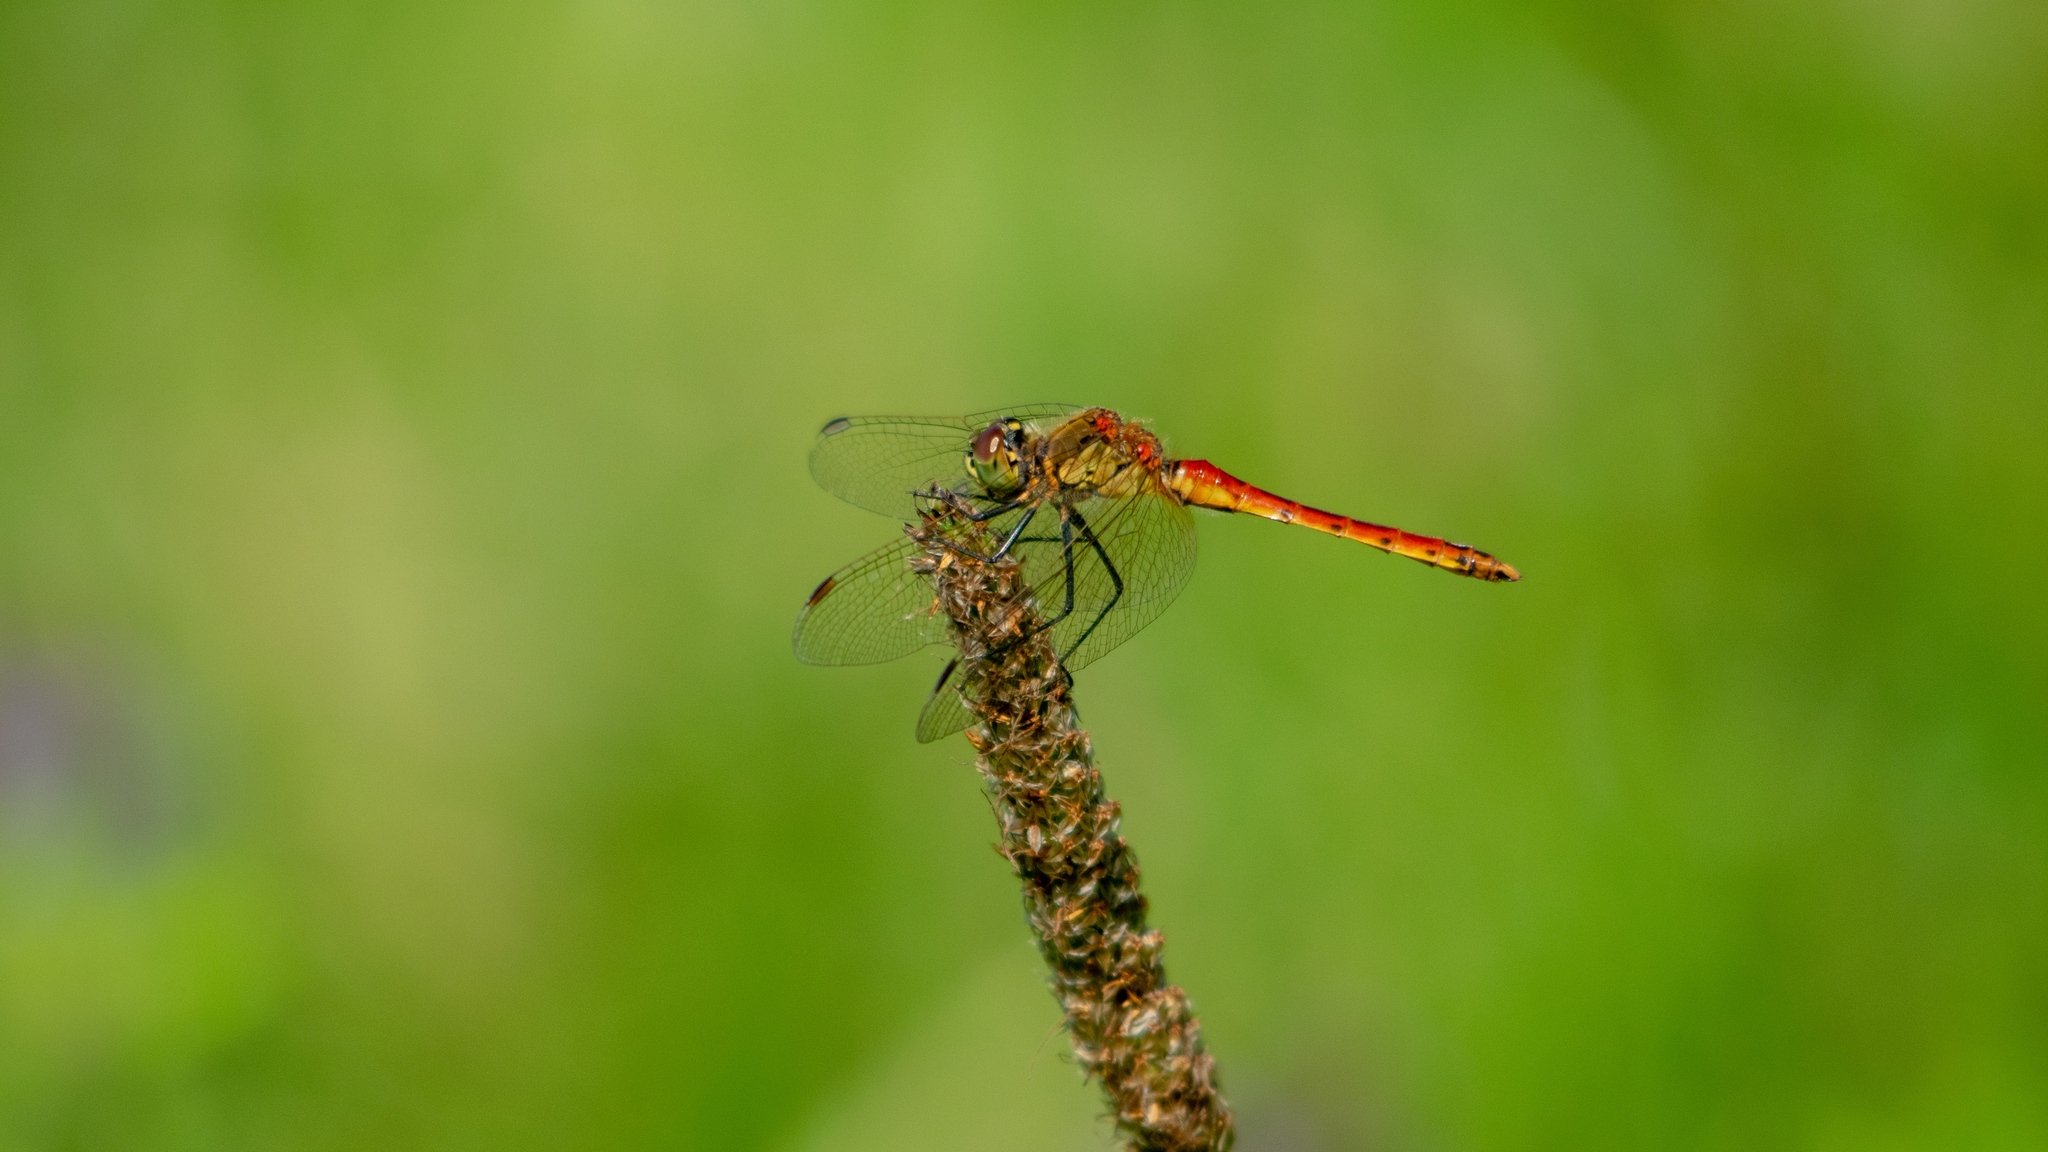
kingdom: Animalia
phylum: Arthropoda
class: Insecta
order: Odonata
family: Libellulidae
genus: Sympetrum
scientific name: Sympetrum depressiusculum
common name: Spotted darter
